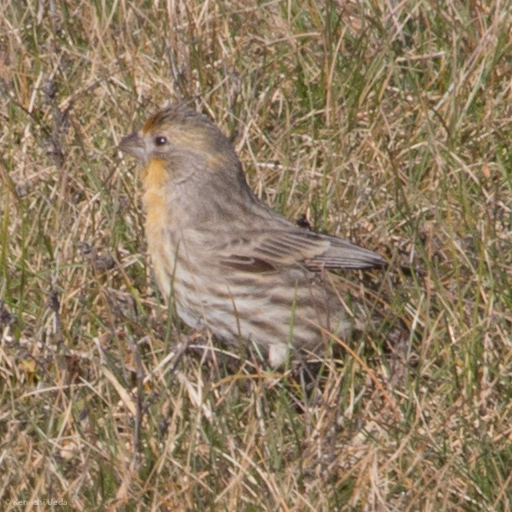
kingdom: Animalia
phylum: Chordata
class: Aves
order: Passeriformes
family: Fringillidae
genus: Haemorhous
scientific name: Haemorhous mexicanus
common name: House finch
